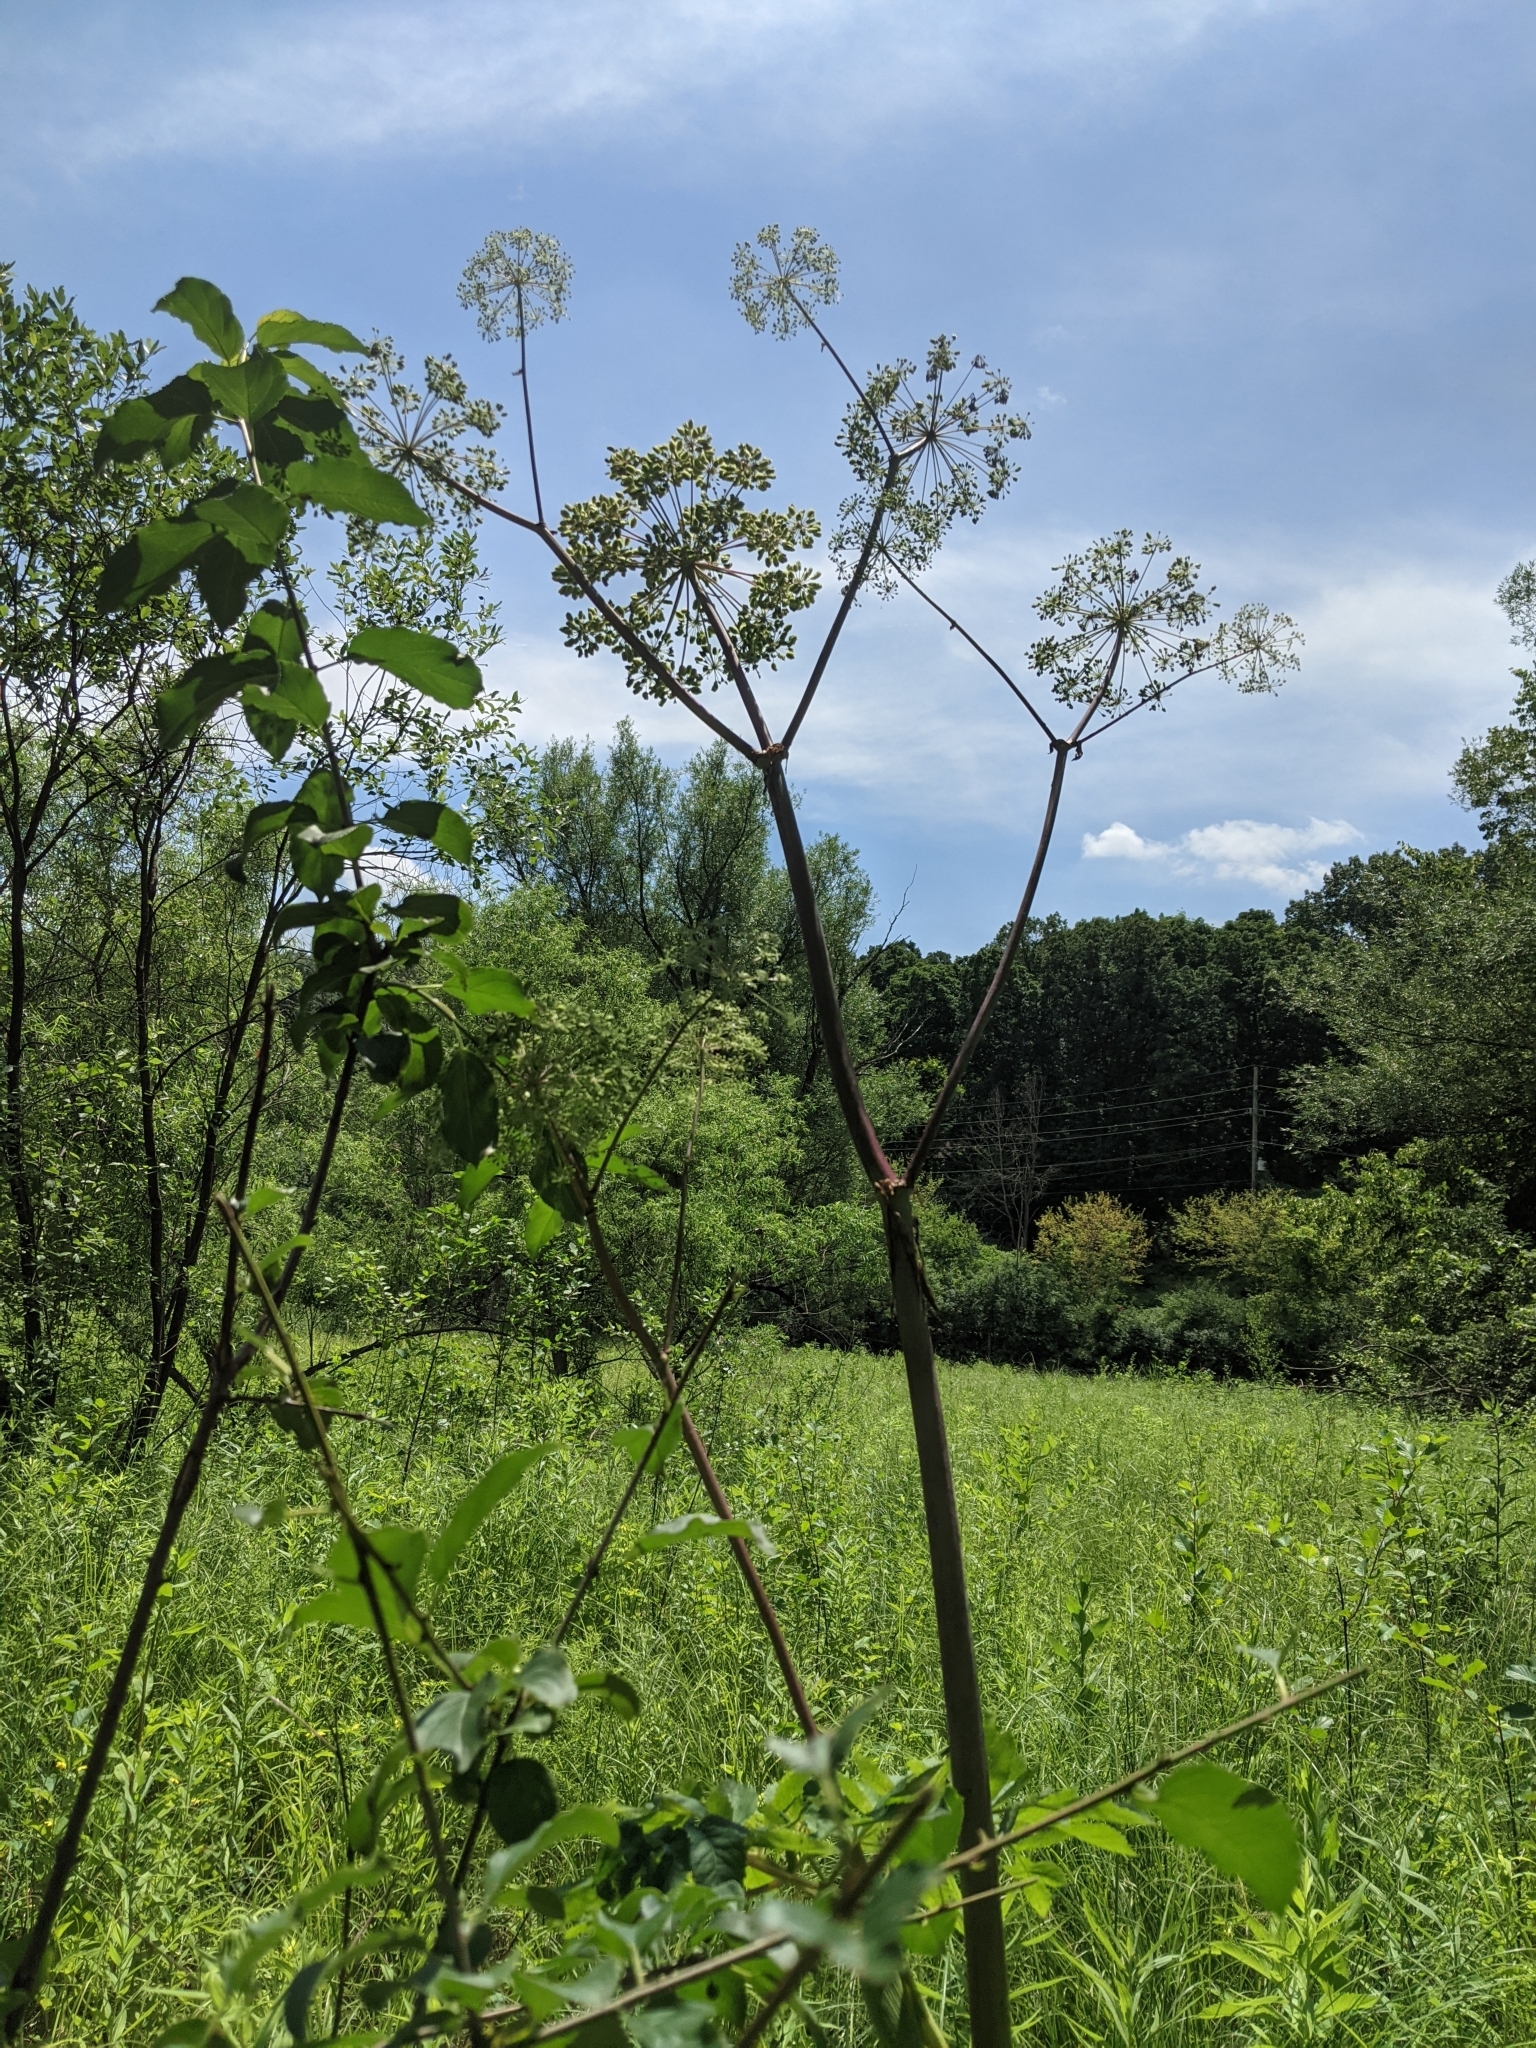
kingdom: Plantae
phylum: Tracheophyta
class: Magnoliopsida
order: Apiales
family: Apiaceae
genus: Angelica
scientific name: Angelica atropurpurea
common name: Great angelica
